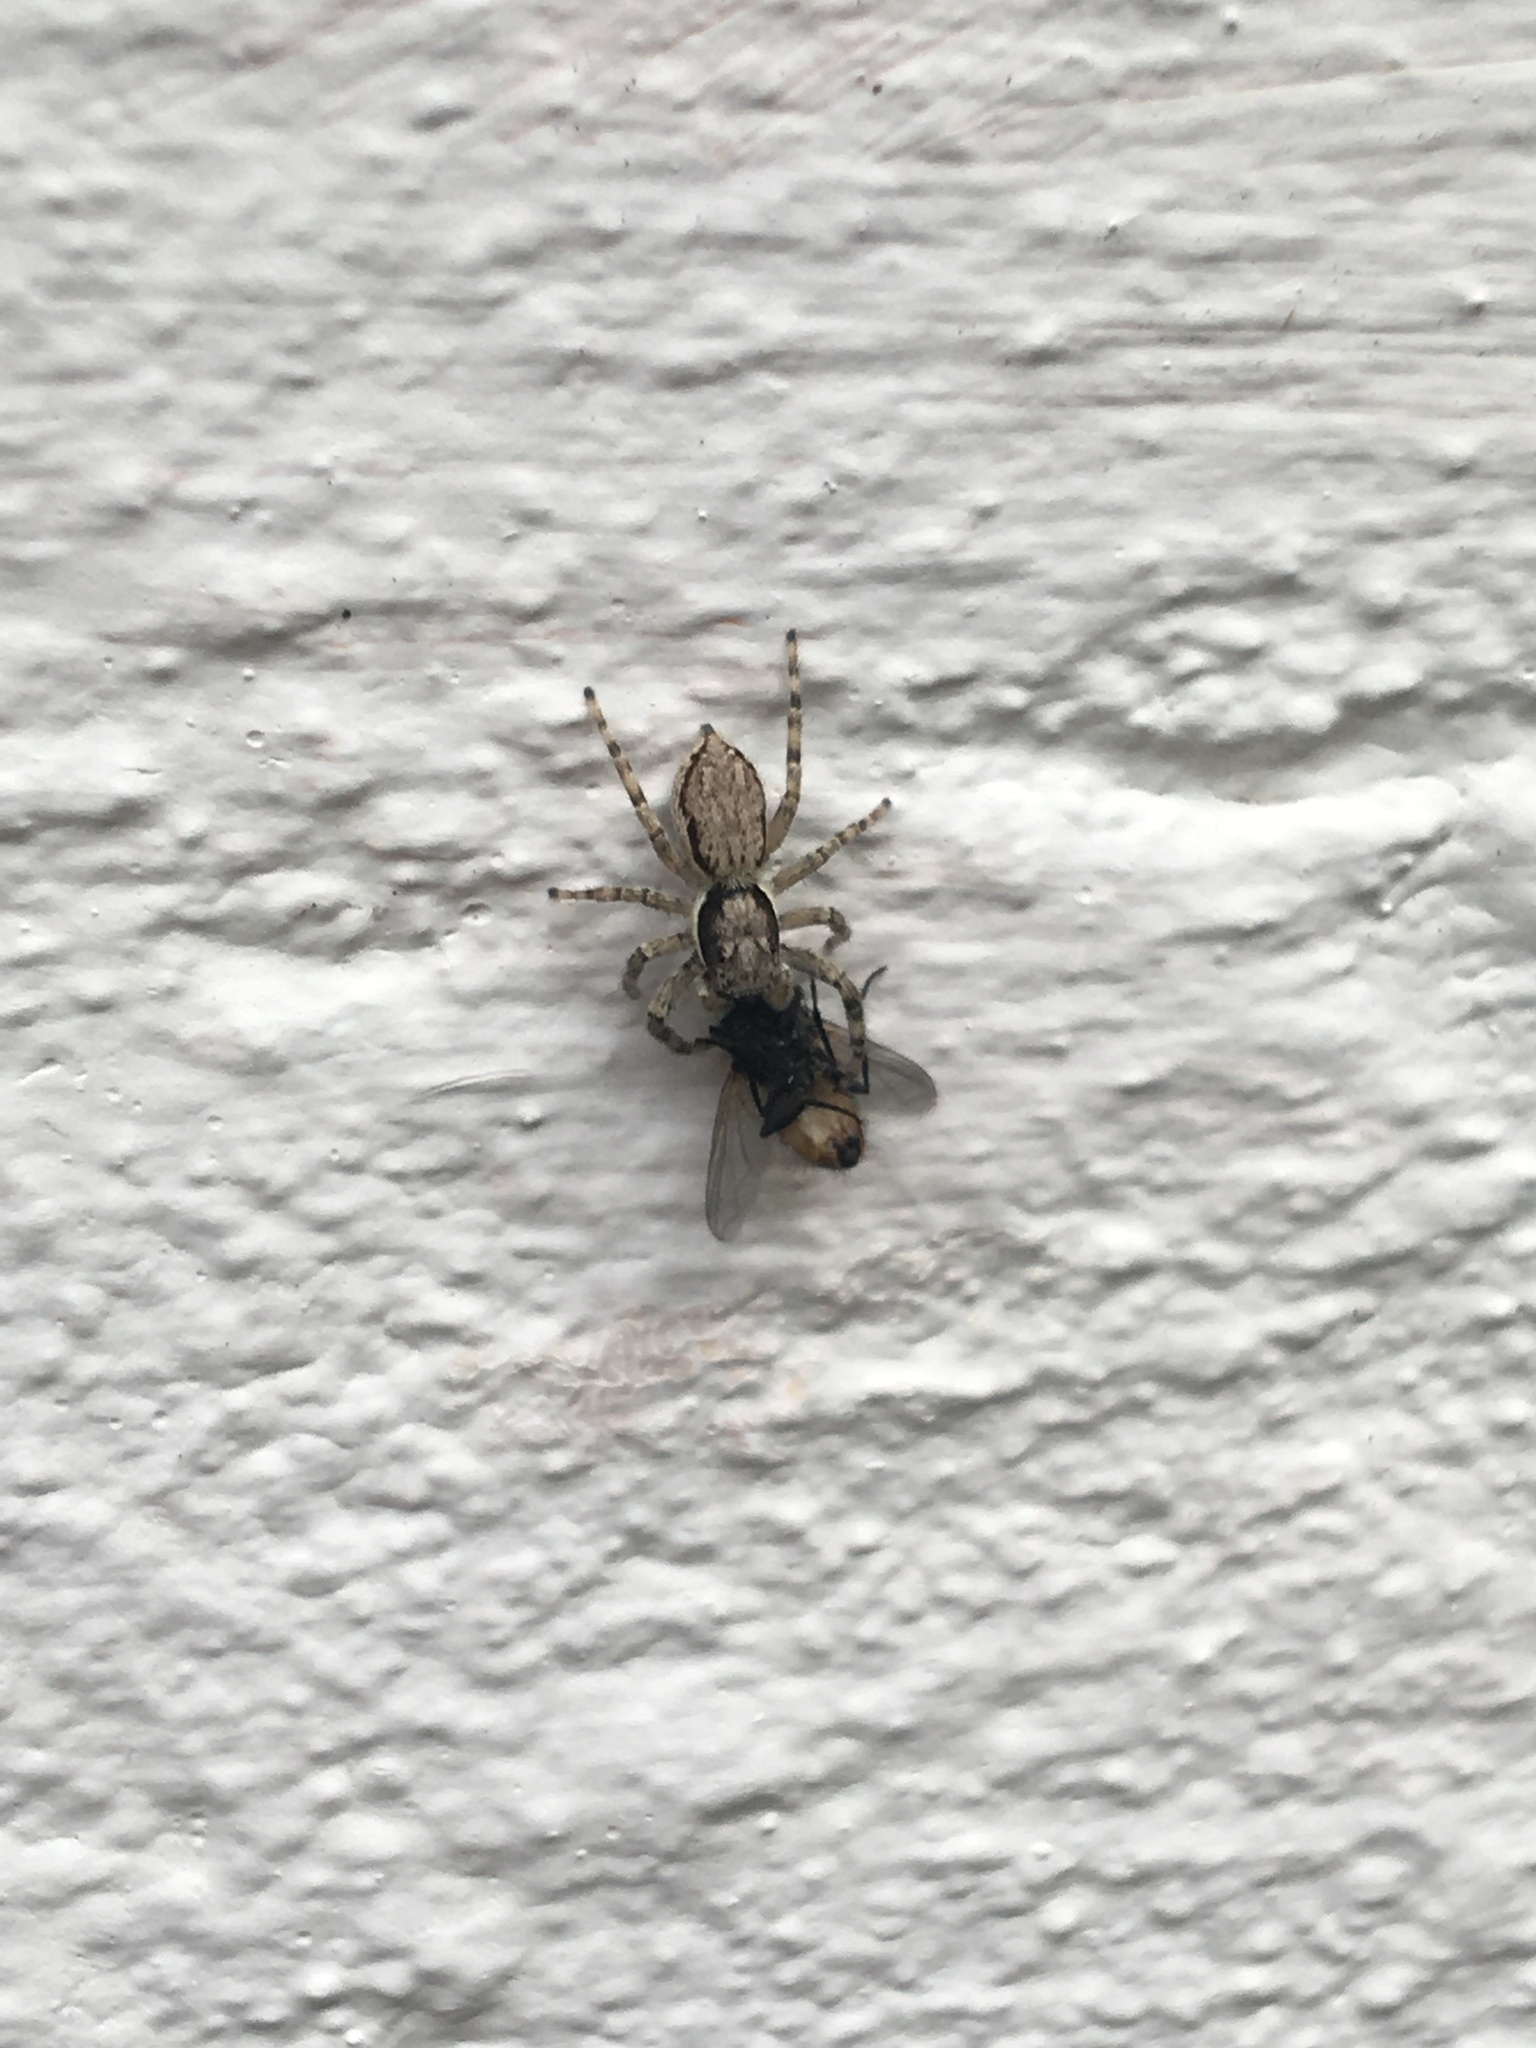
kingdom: Animalia
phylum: Arthropoda
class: Arachnida
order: Araneae
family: Salticidae
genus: Menemerus
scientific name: Menemerus bivittatus
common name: Gray wall jumper
